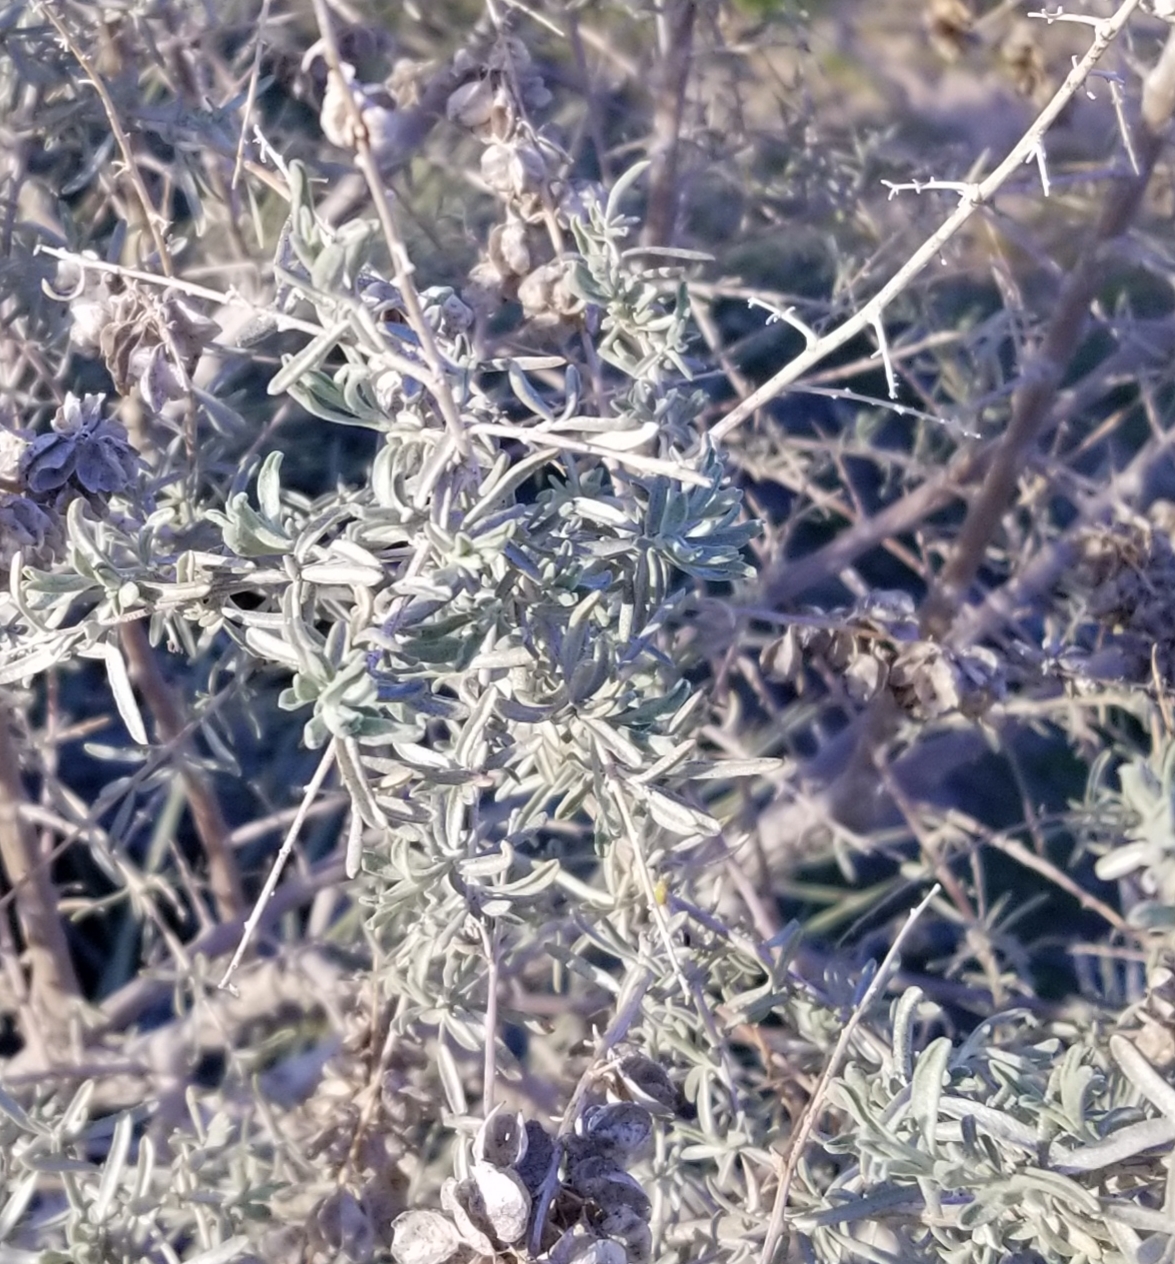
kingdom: Plantae
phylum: Tracheophyta
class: Magnoliopsida
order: Caryophyllales
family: Amaranthaceae
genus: Atriplex
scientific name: Atriplex canescens
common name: Four-wing saltbush
